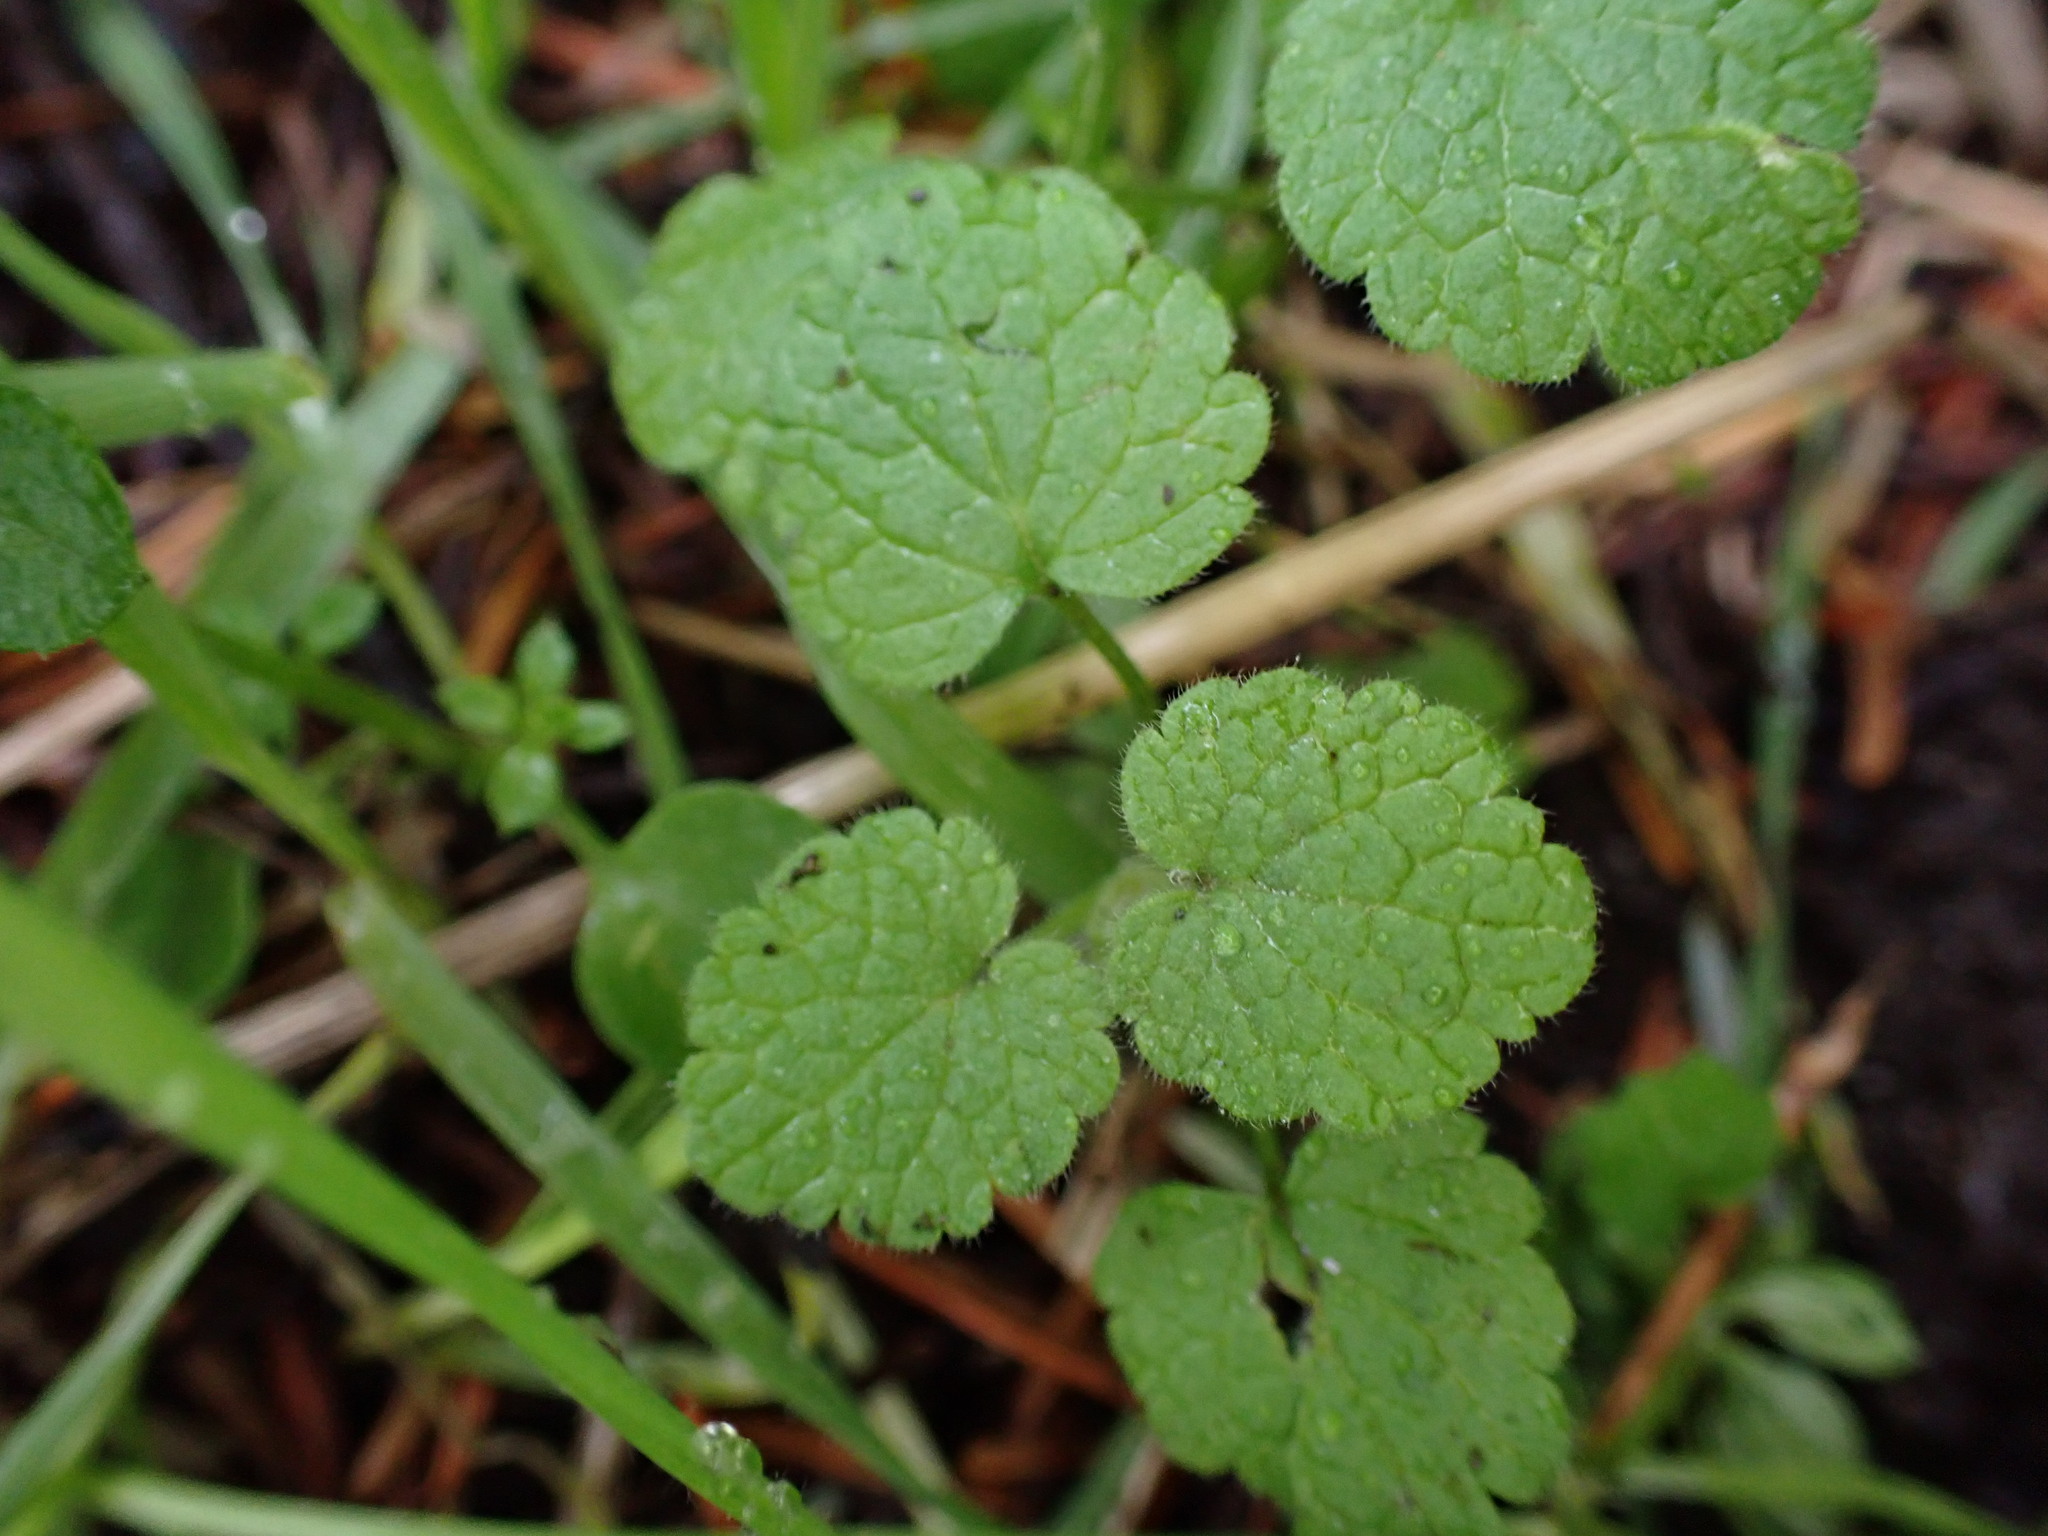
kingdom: Plantae
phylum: Tracheophyta
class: Magnoliopsida
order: Lamiales
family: Lamiaceae
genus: Lamium
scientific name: Lamium purpureum
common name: Red dead-nettle
